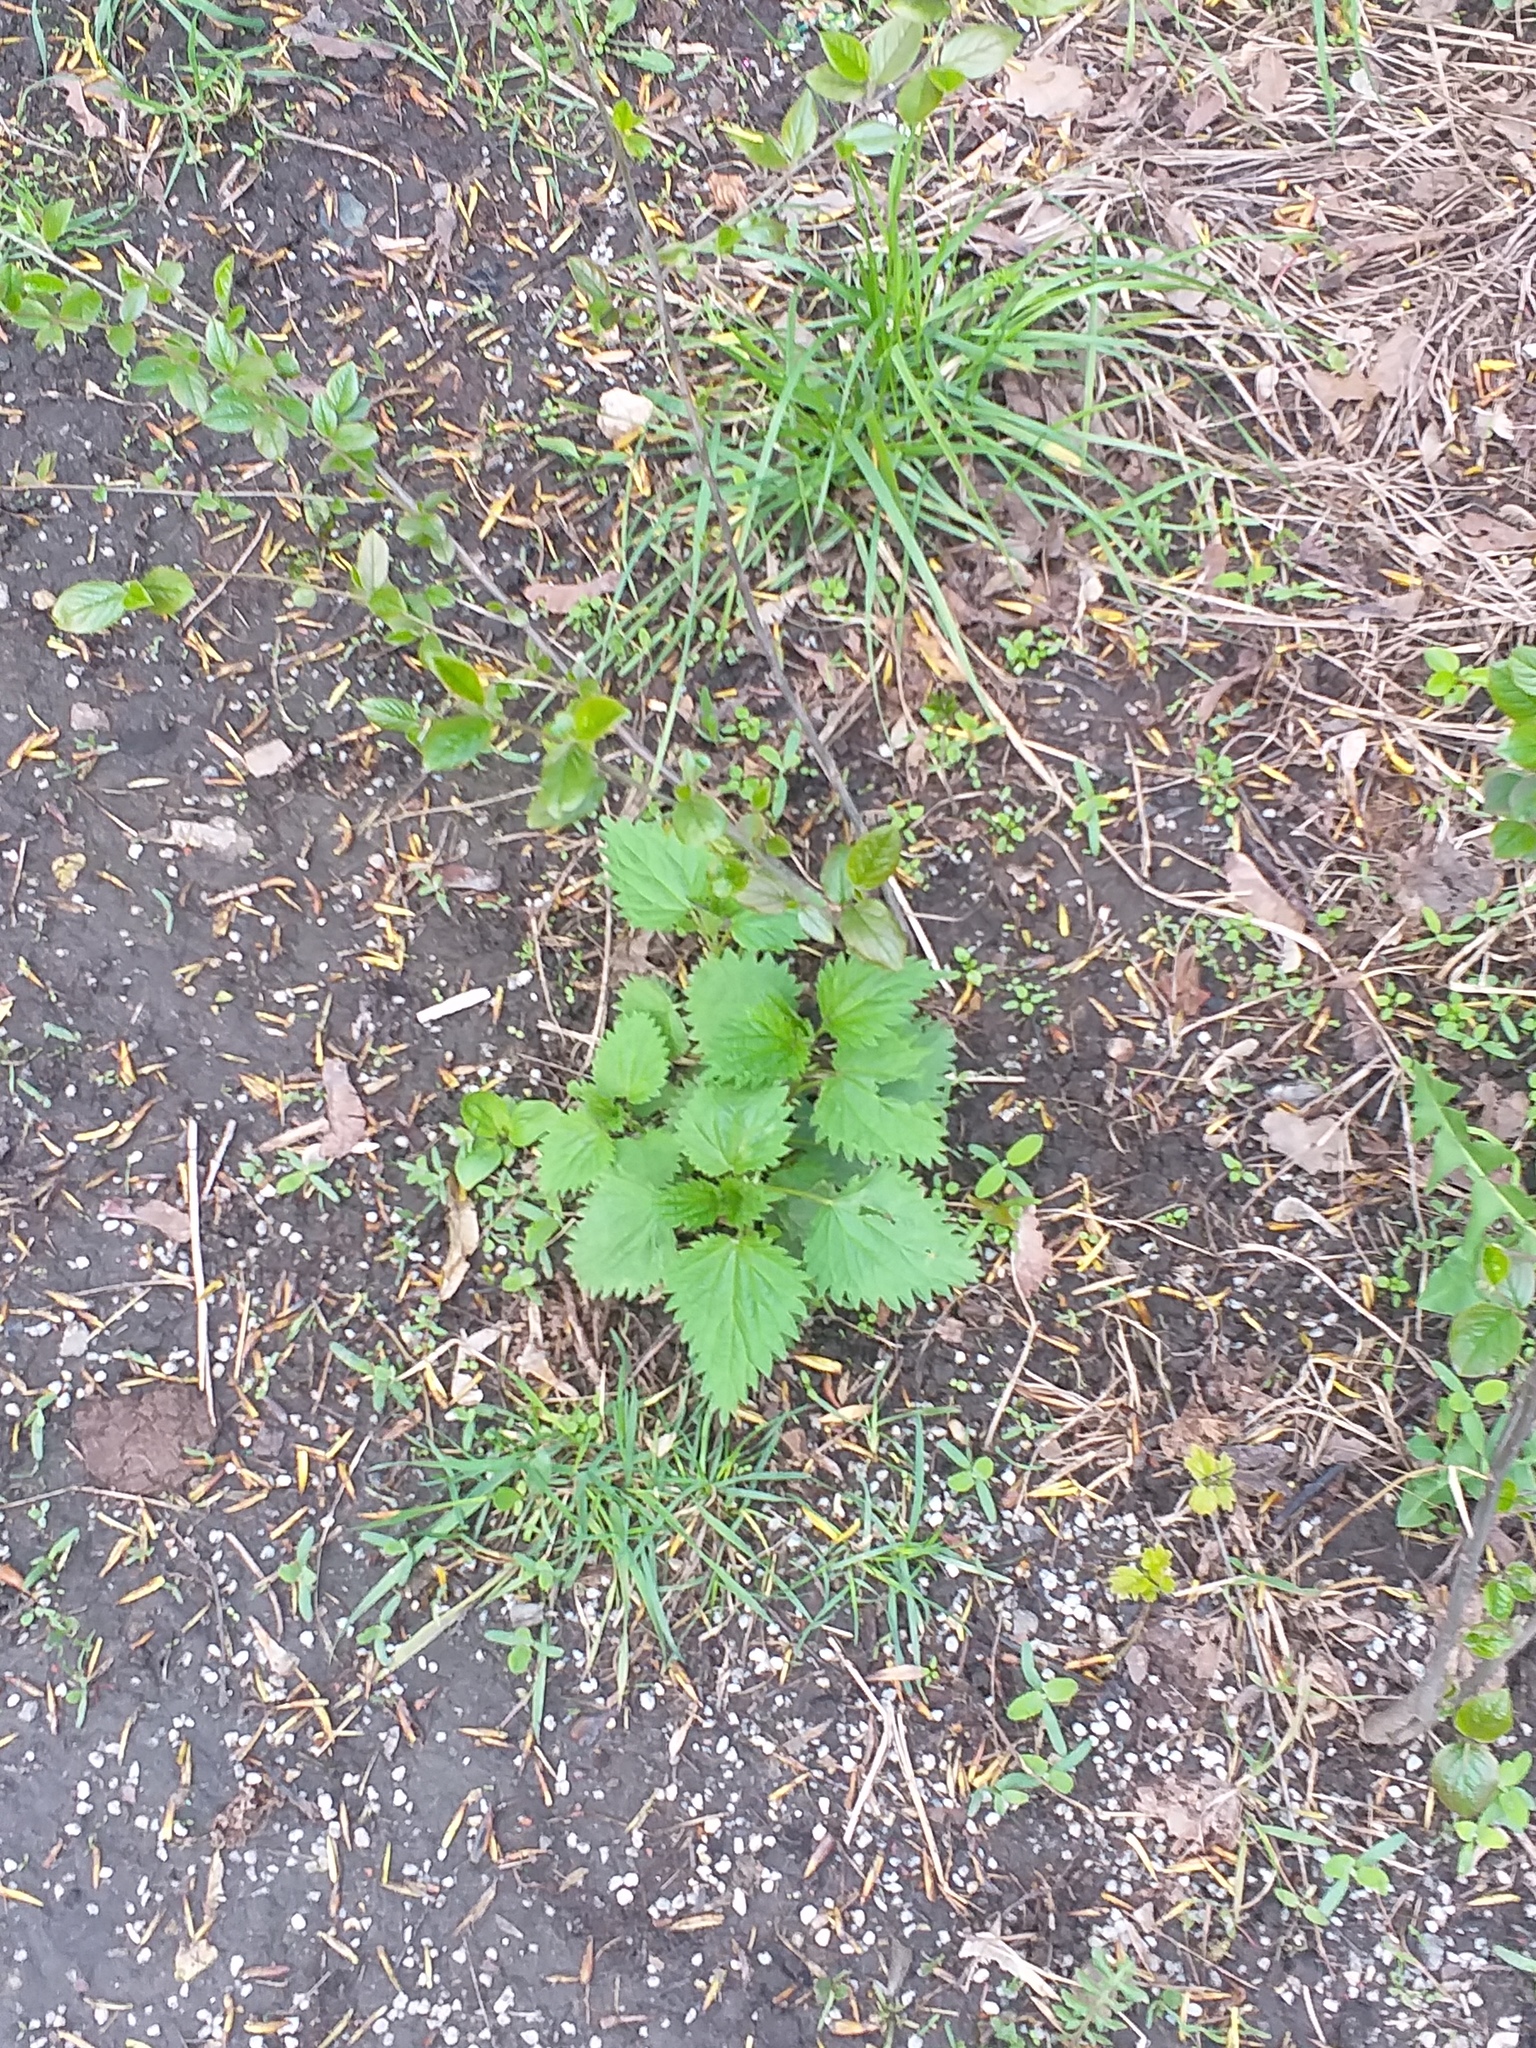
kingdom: Plantae
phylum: Tracheophyta
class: Magnoliopsida
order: Rosales
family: Urticaceae
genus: Urtica
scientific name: Urtica dioica
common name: Common nettle
